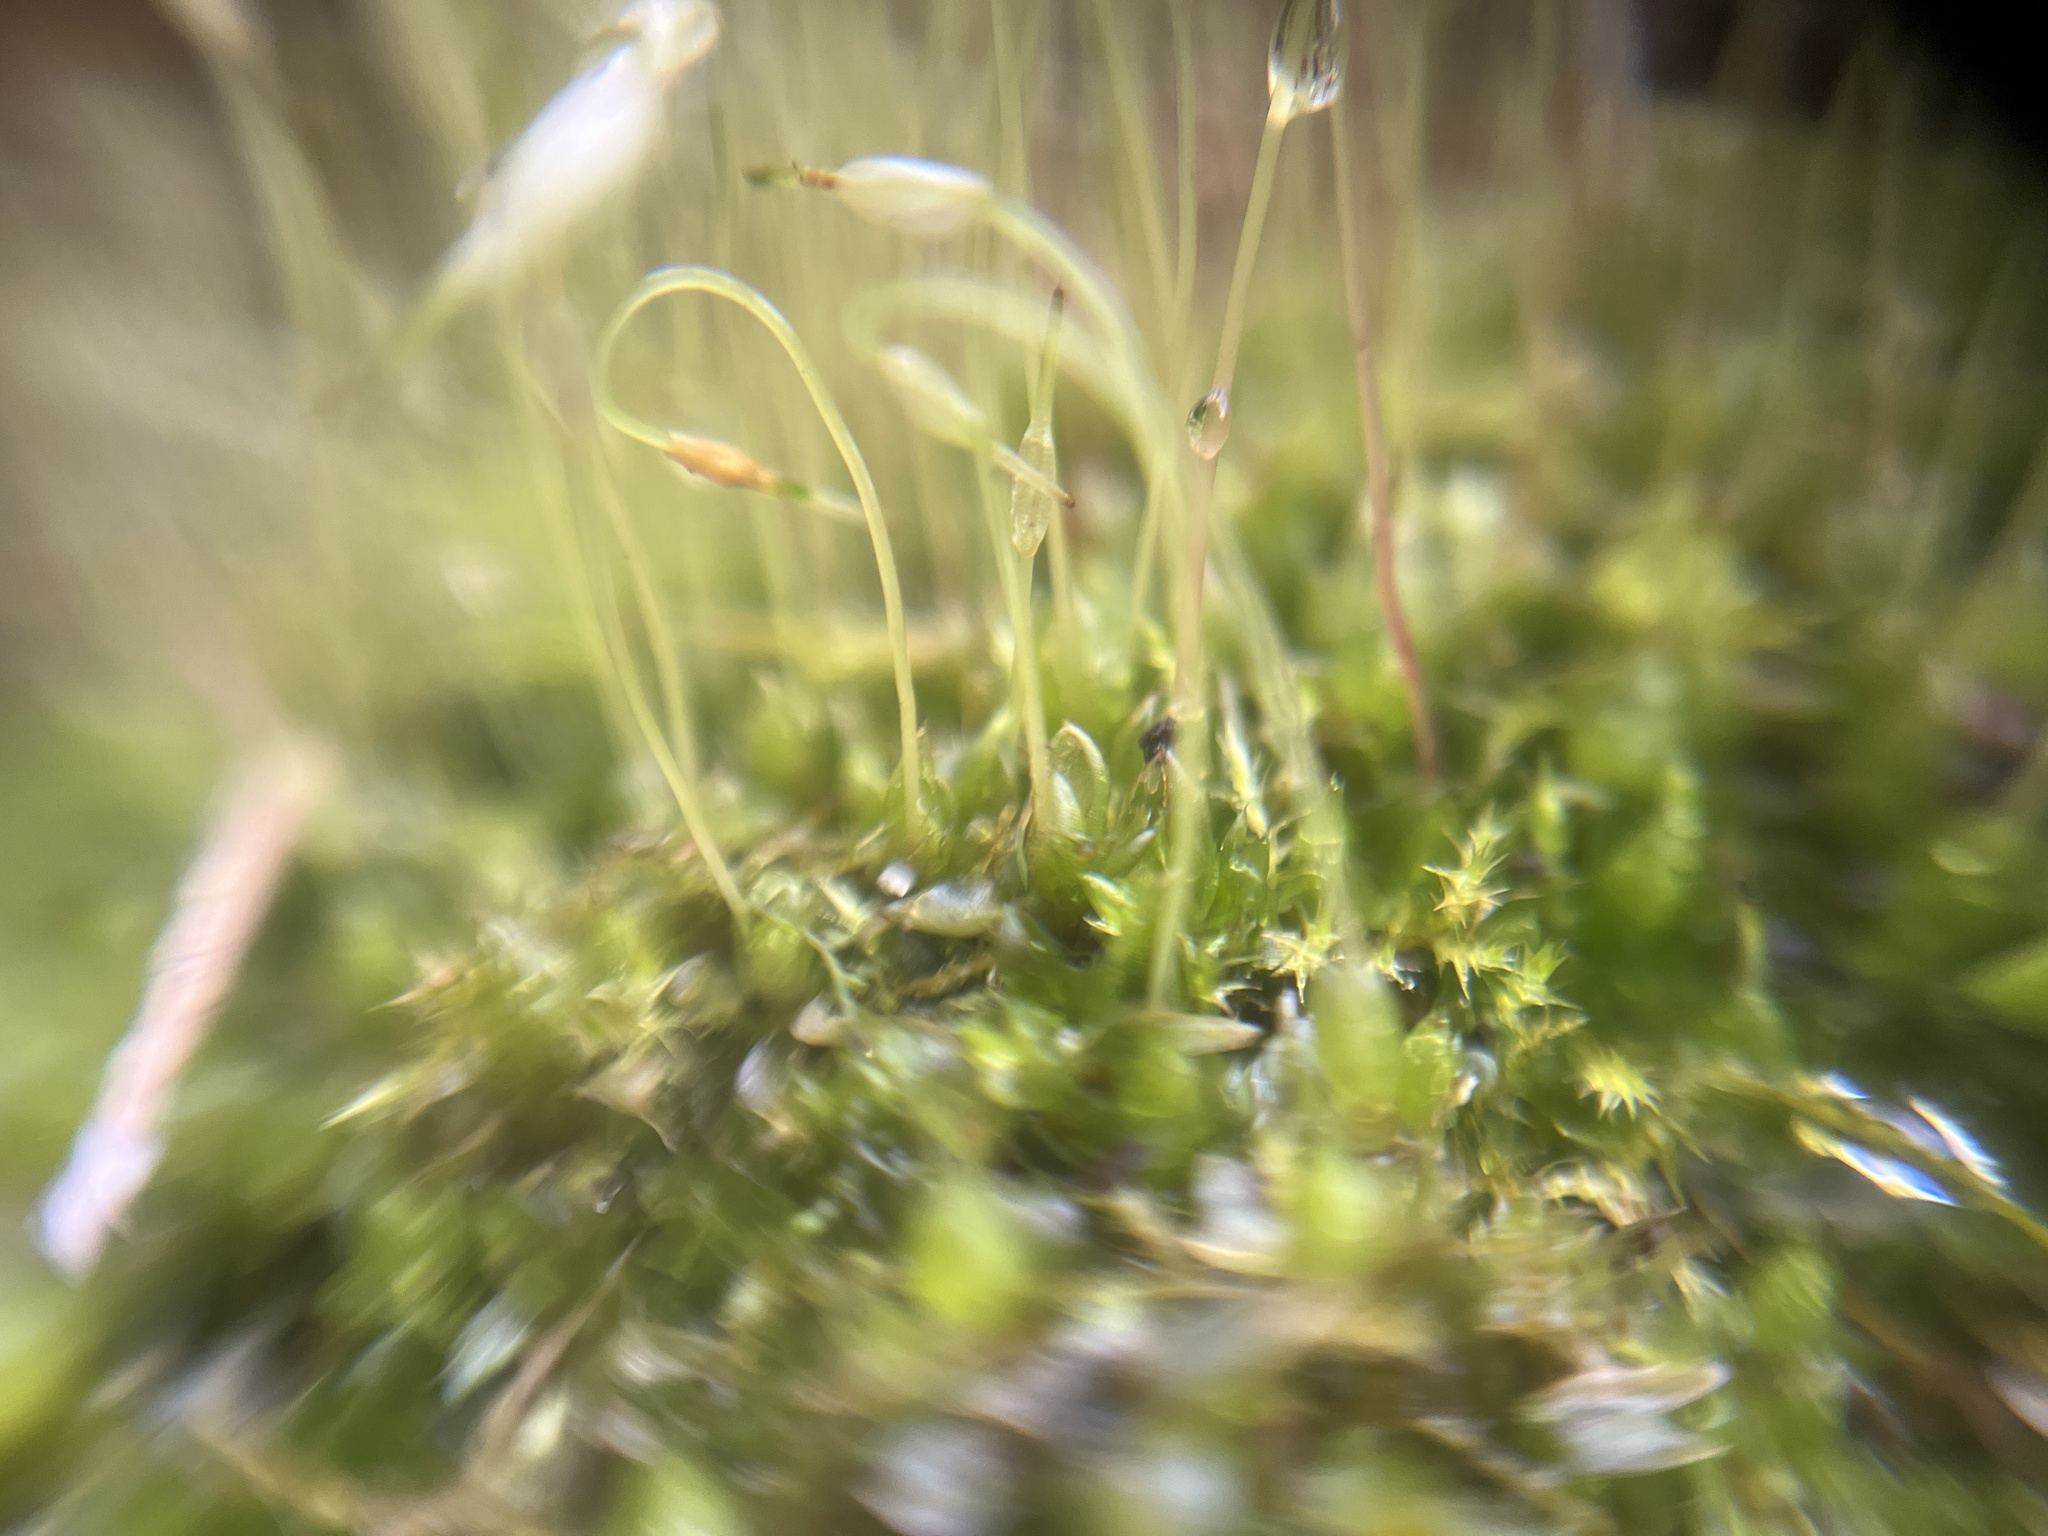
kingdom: Plantae
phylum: Bryophyta
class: Bryopsida
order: Funariales
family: Funariaceae
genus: Funaria
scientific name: Funaria hygrometrica
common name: Common cord moss
